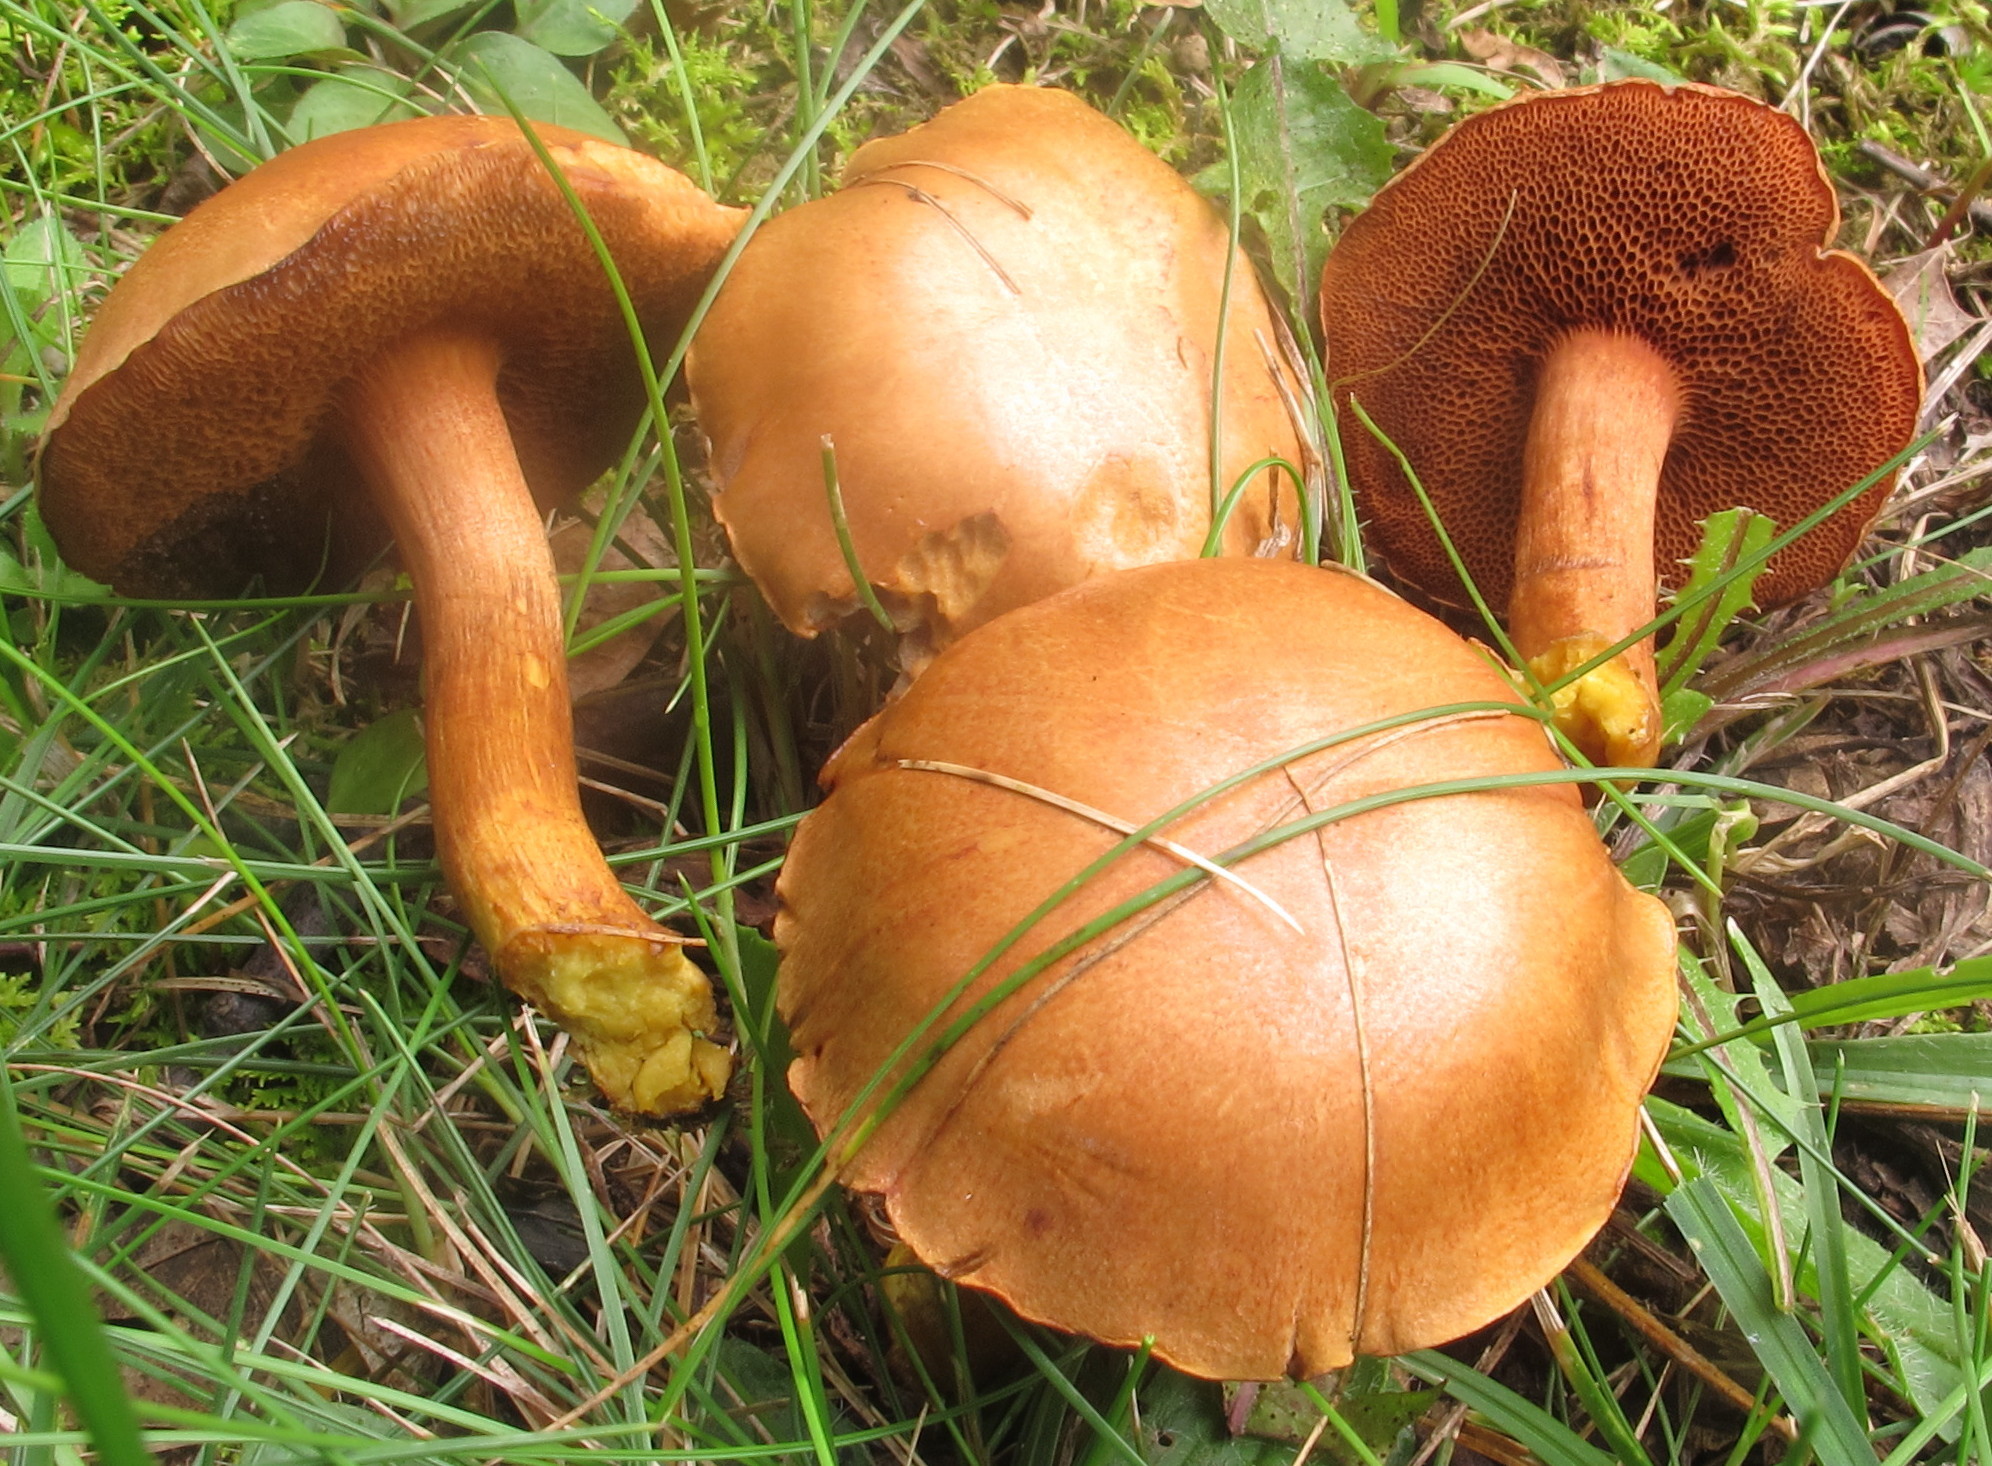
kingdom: Fungi
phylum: Basidiomycota
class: Agaricomycetes
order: Boletales
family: Boletaceae
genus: Chalciporus
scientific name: Chalciporus piperatus
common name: Peppery bolete
